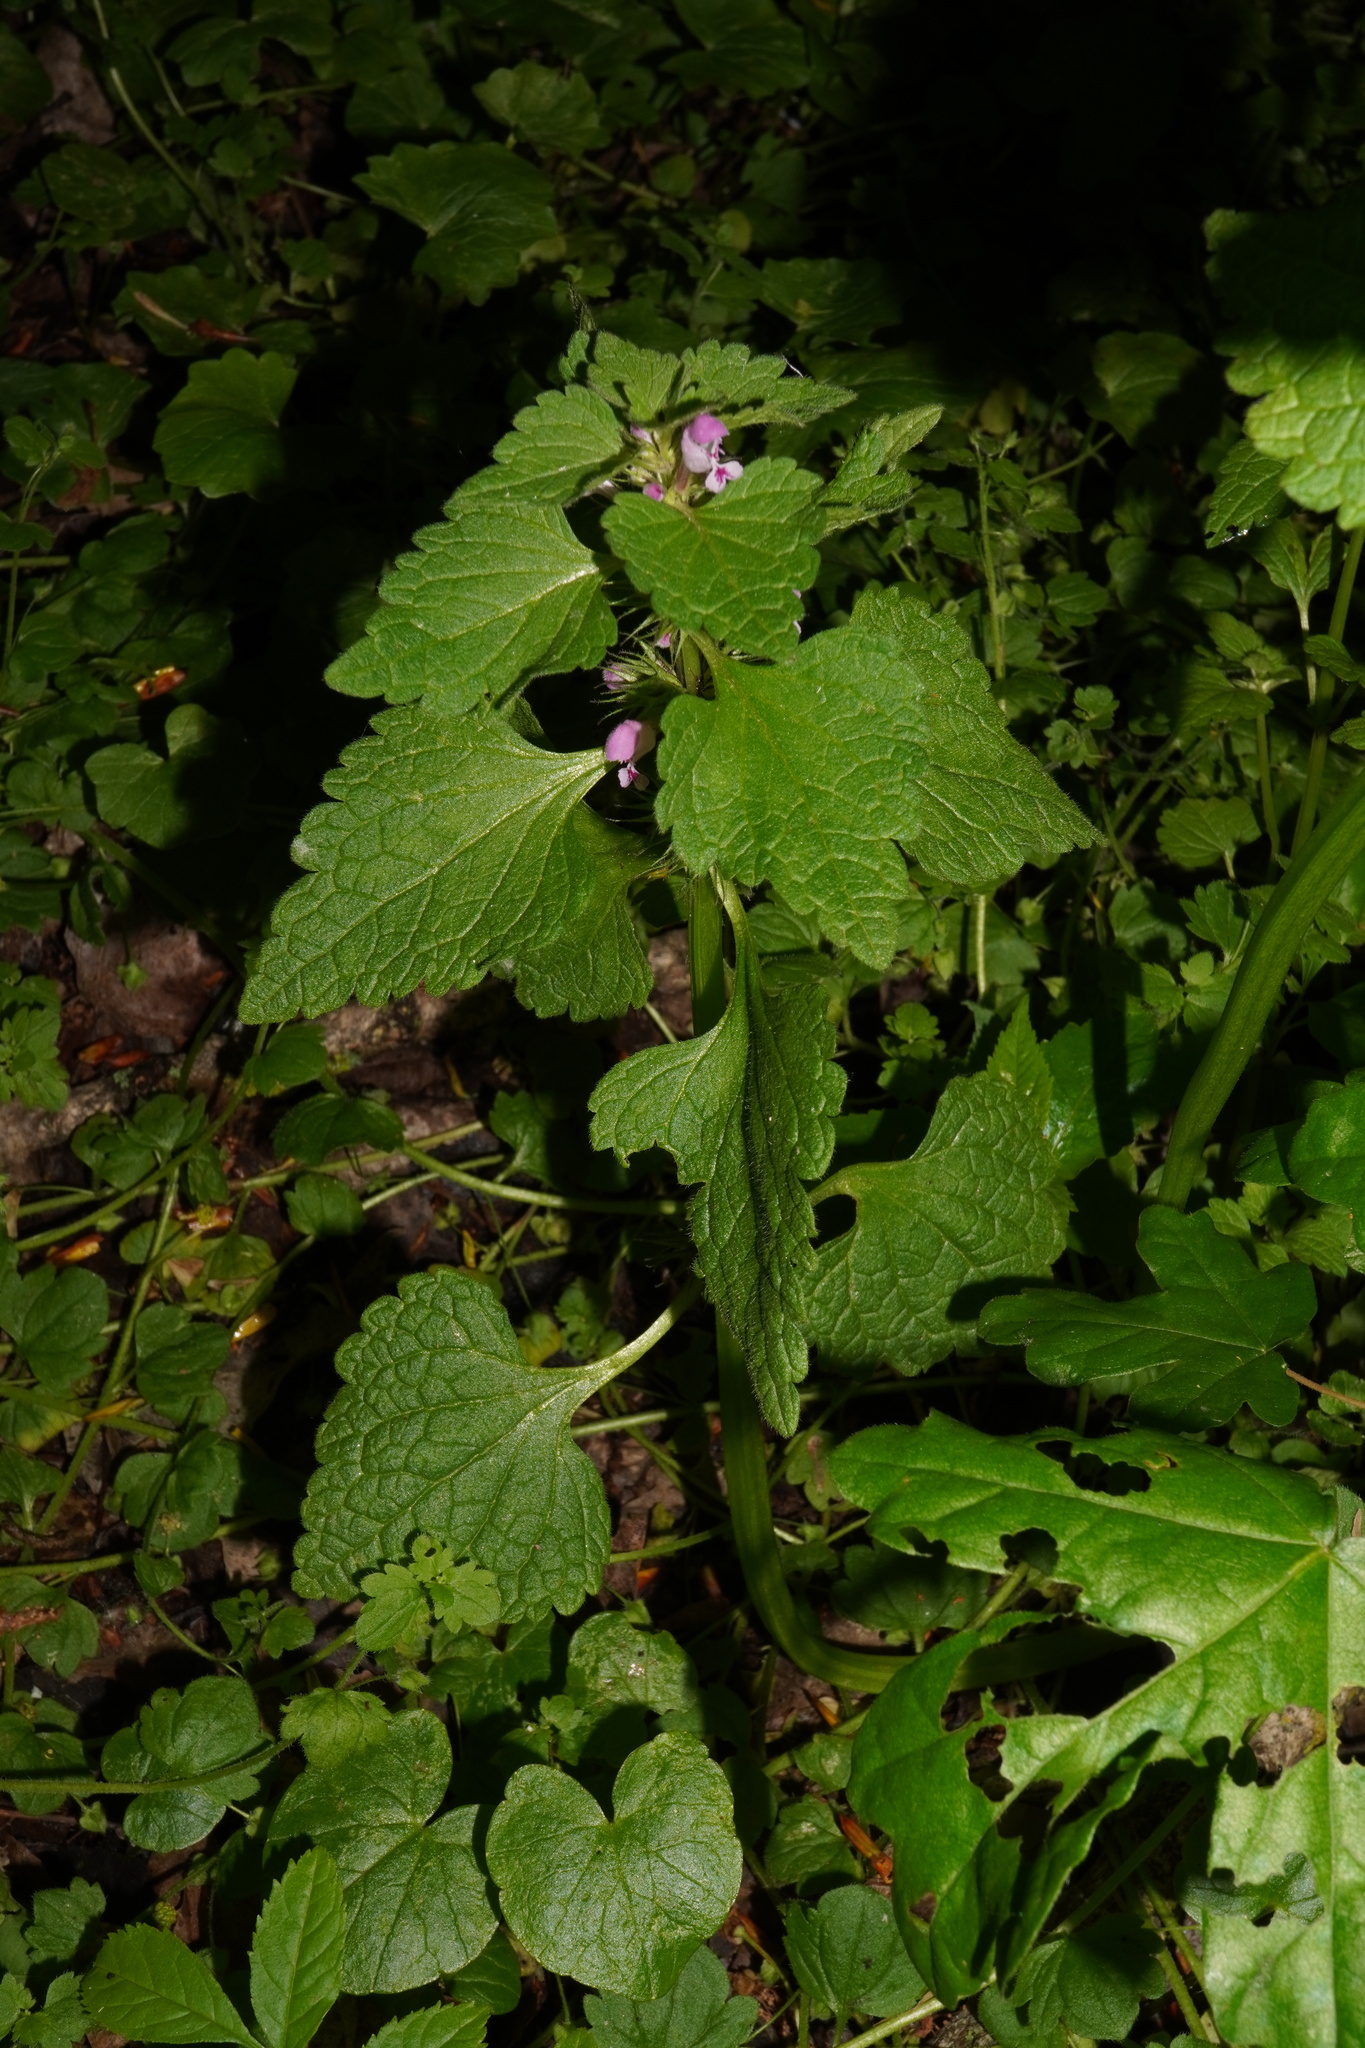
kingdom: Plantae
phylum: Tracheophyta
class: Magnoliopsida
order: Lamiales
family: Lamiaceae
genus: Lamium
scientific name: Lamium purpureum
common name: Red dead-nettle
